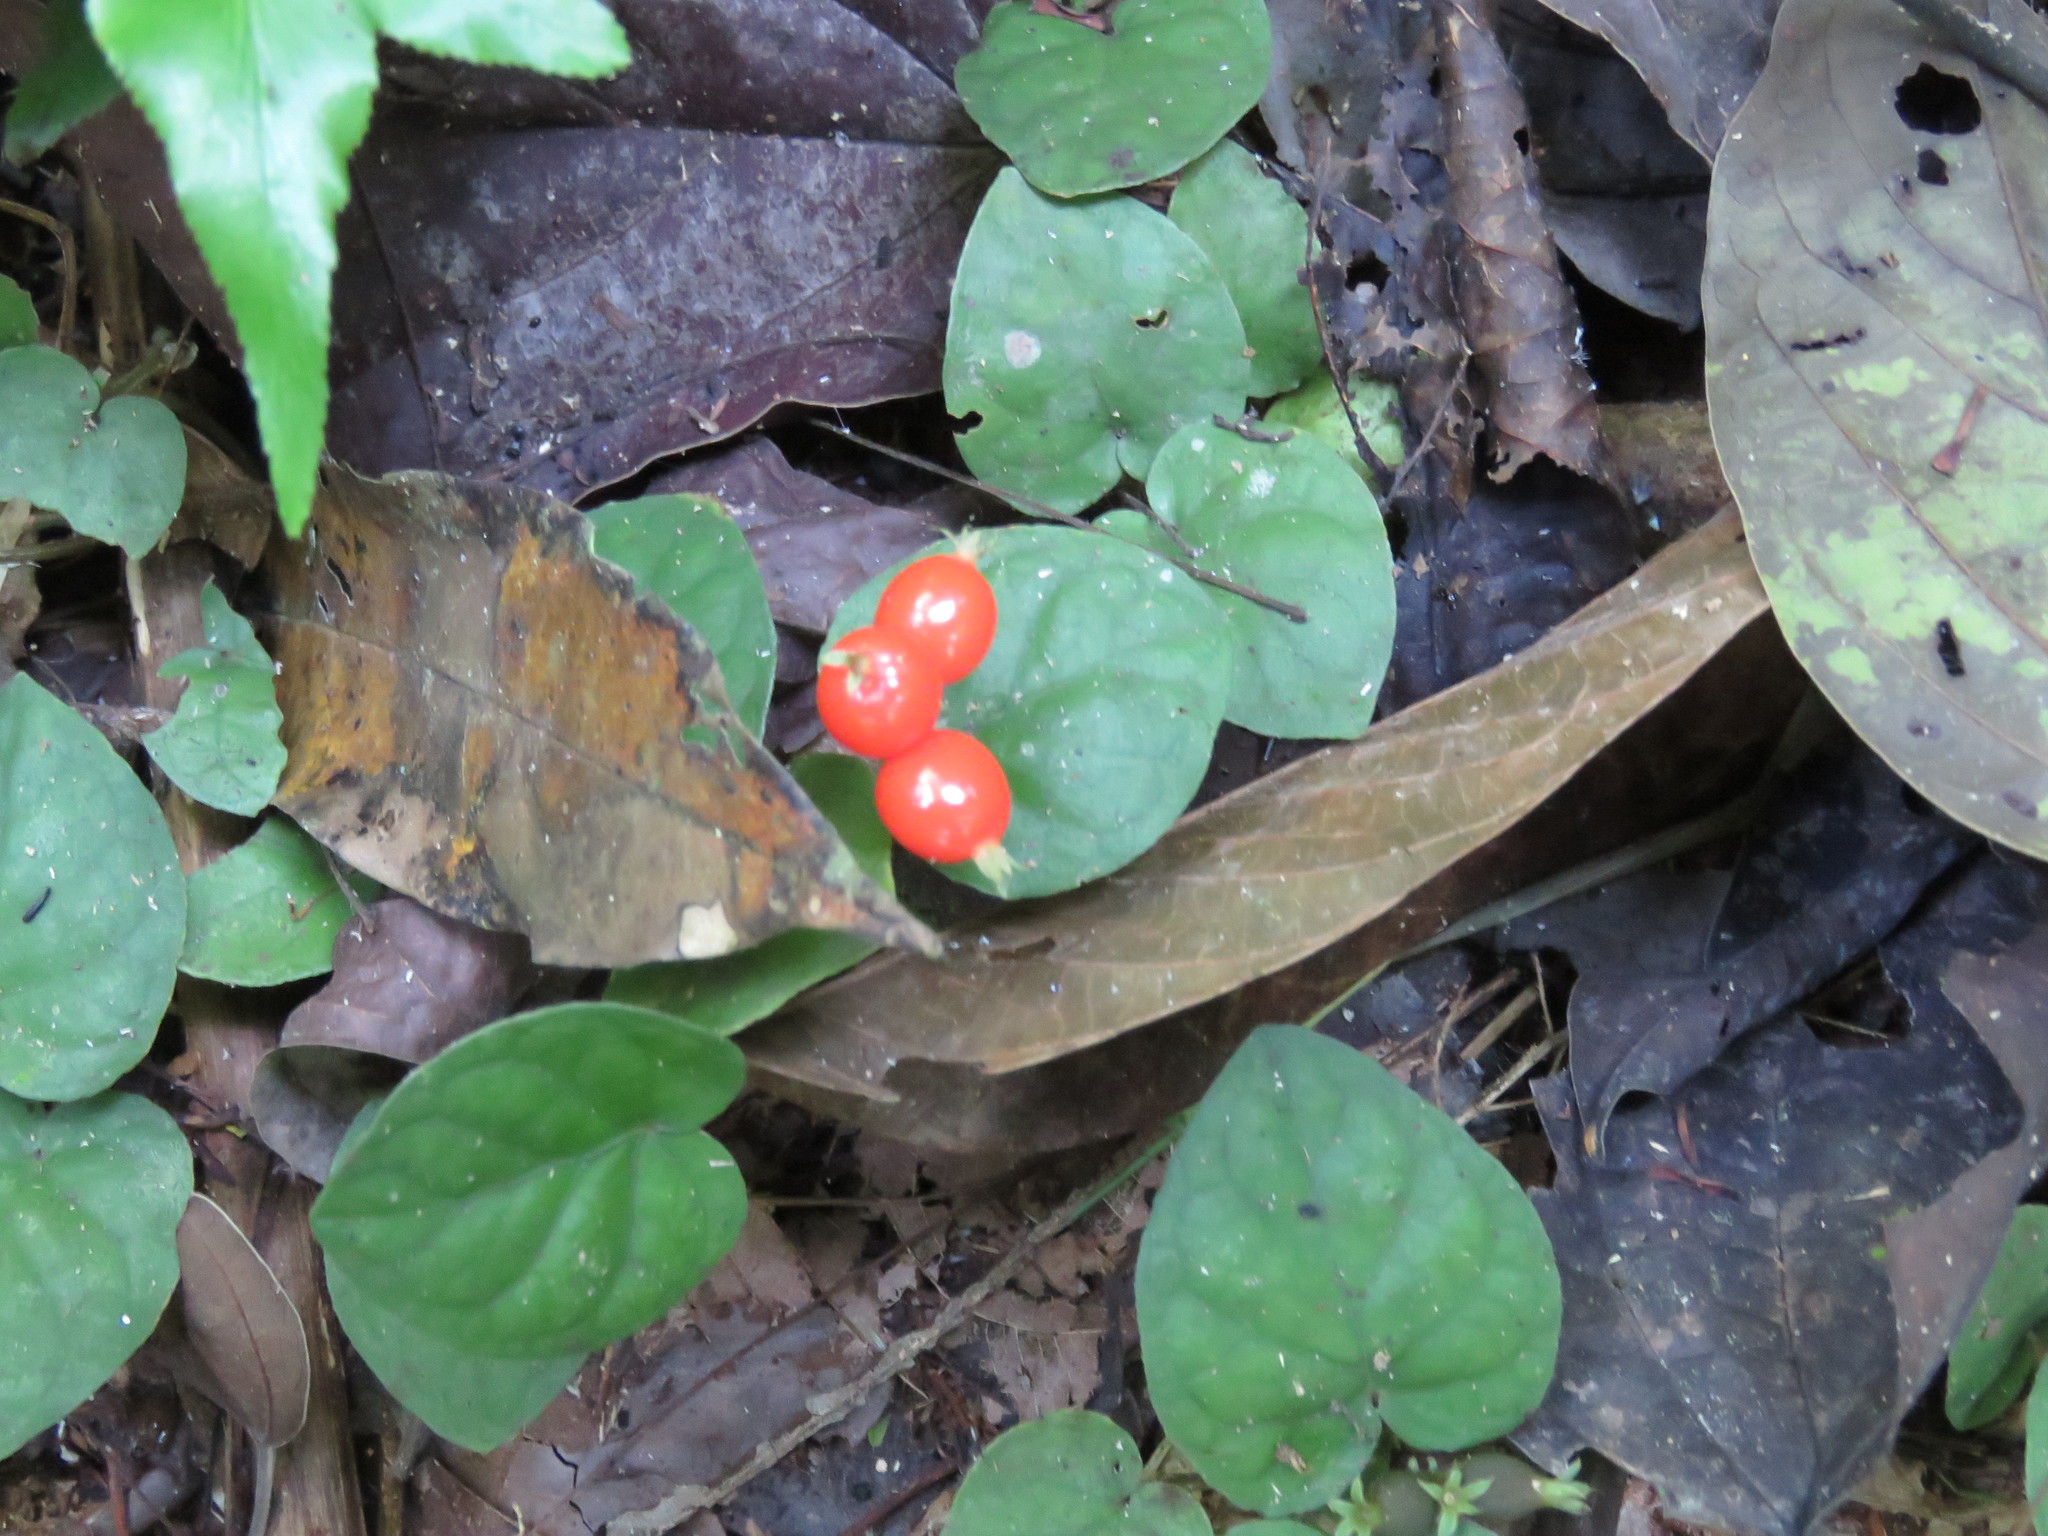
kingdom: Plantae
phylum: Tracheophyta
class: Magnoliopsida
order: Gentianales
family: Rubiaceae
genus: Geophila
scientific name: Geophila repens
